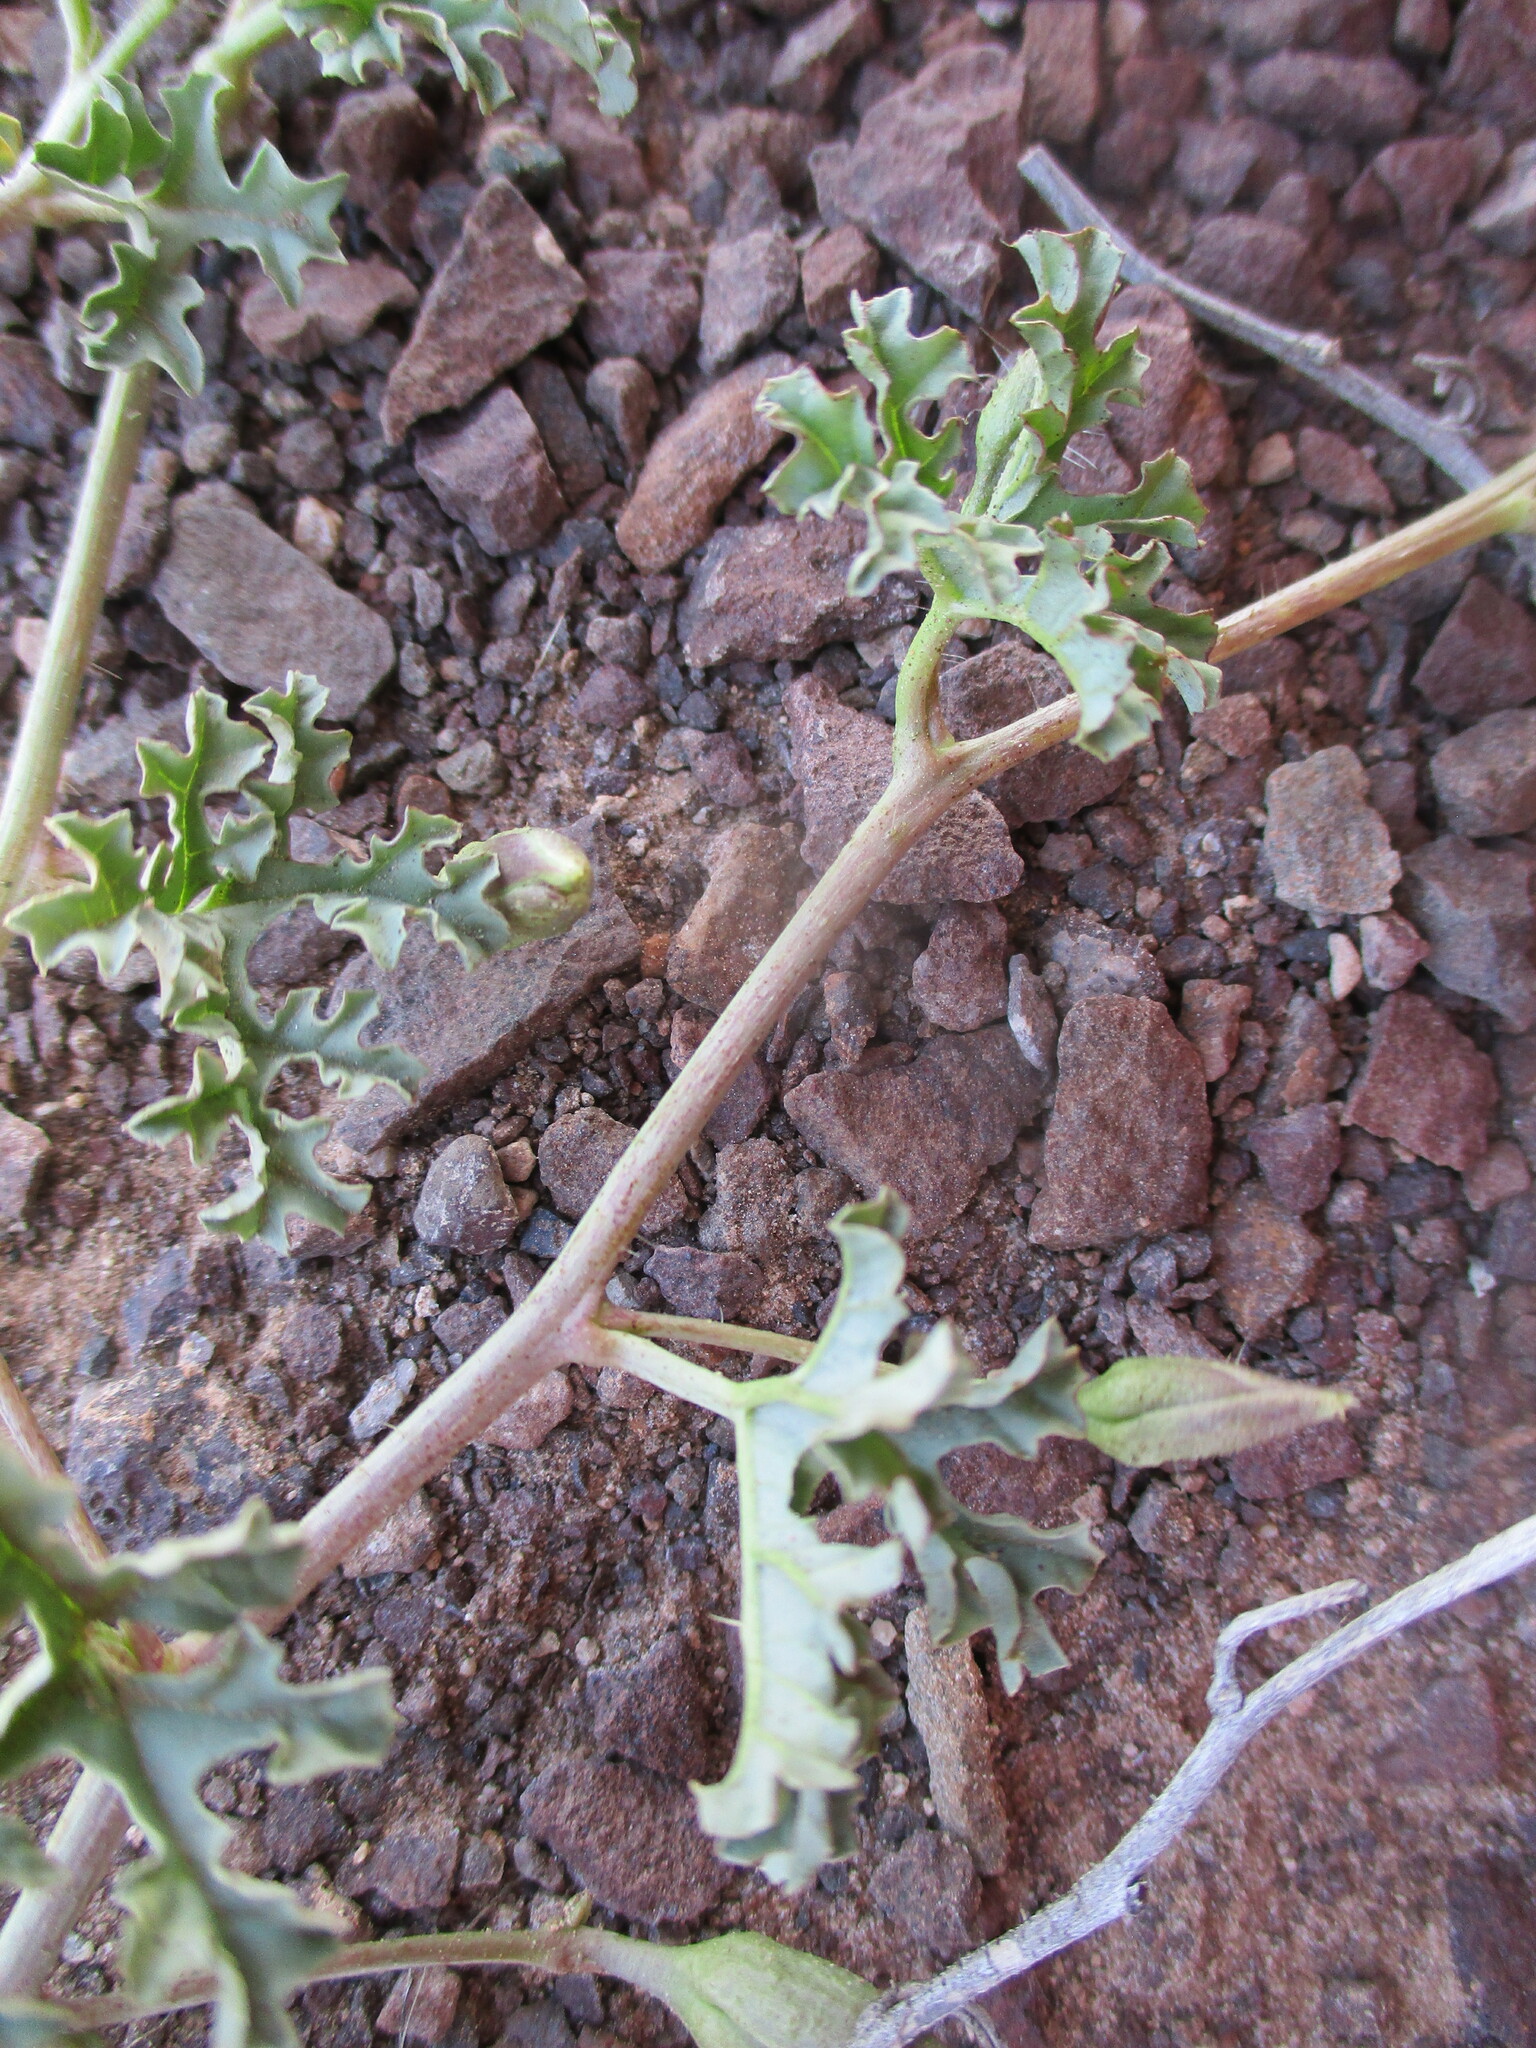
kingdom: Plantae
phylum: Tracheophyta
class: Magnoliopsida
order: Solanales
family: Convolvulaceae
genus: Distimake
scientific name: Distimake guerichii
